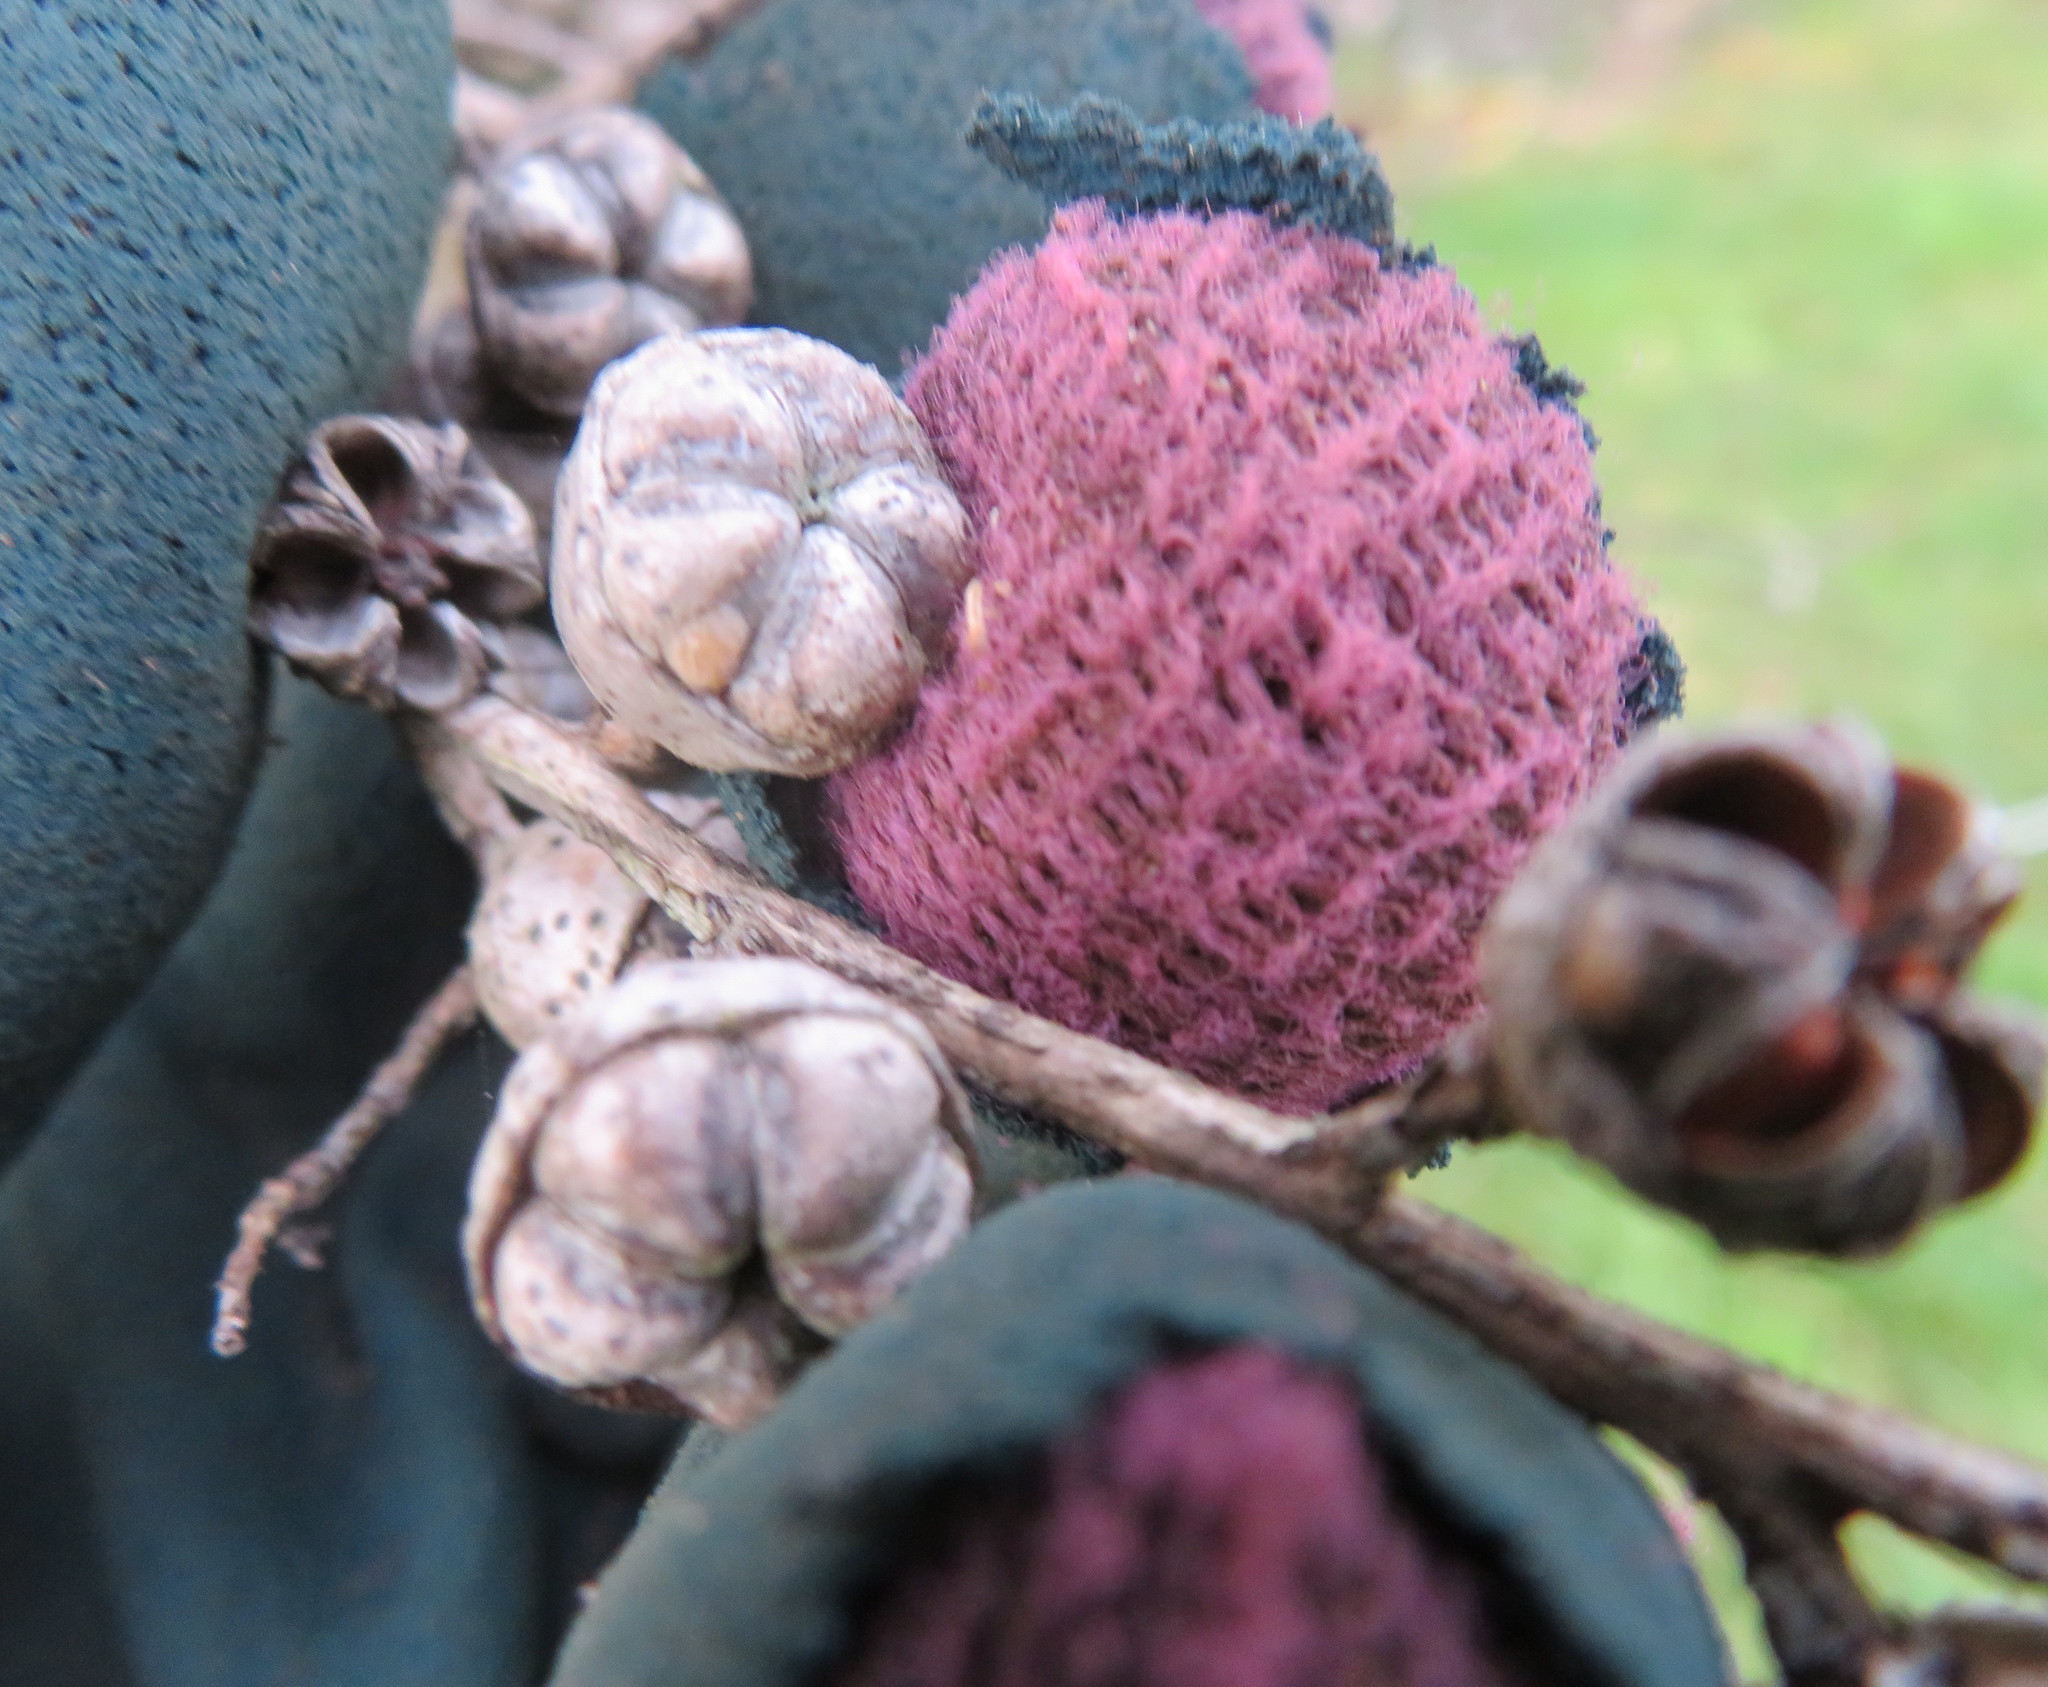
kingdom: Plantae
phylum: Tracheophyta
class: Magnoliopsida
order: Myrtales
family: Myrtaceae
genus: Leptospermum
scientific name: Leptospermum scoparium
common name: Broom tea-tree
